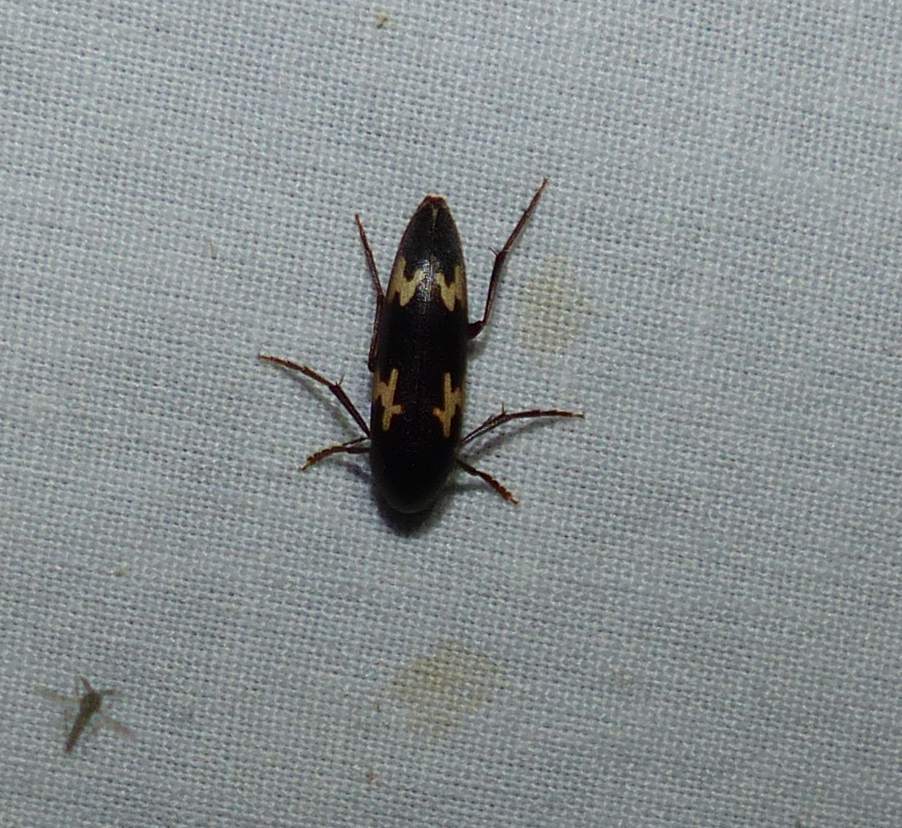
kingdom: Animalia
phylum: Arthropoda
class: Insecta
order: Coleoptera
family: Melandryidae
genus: Dircaea
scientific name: Dircaea liturata
